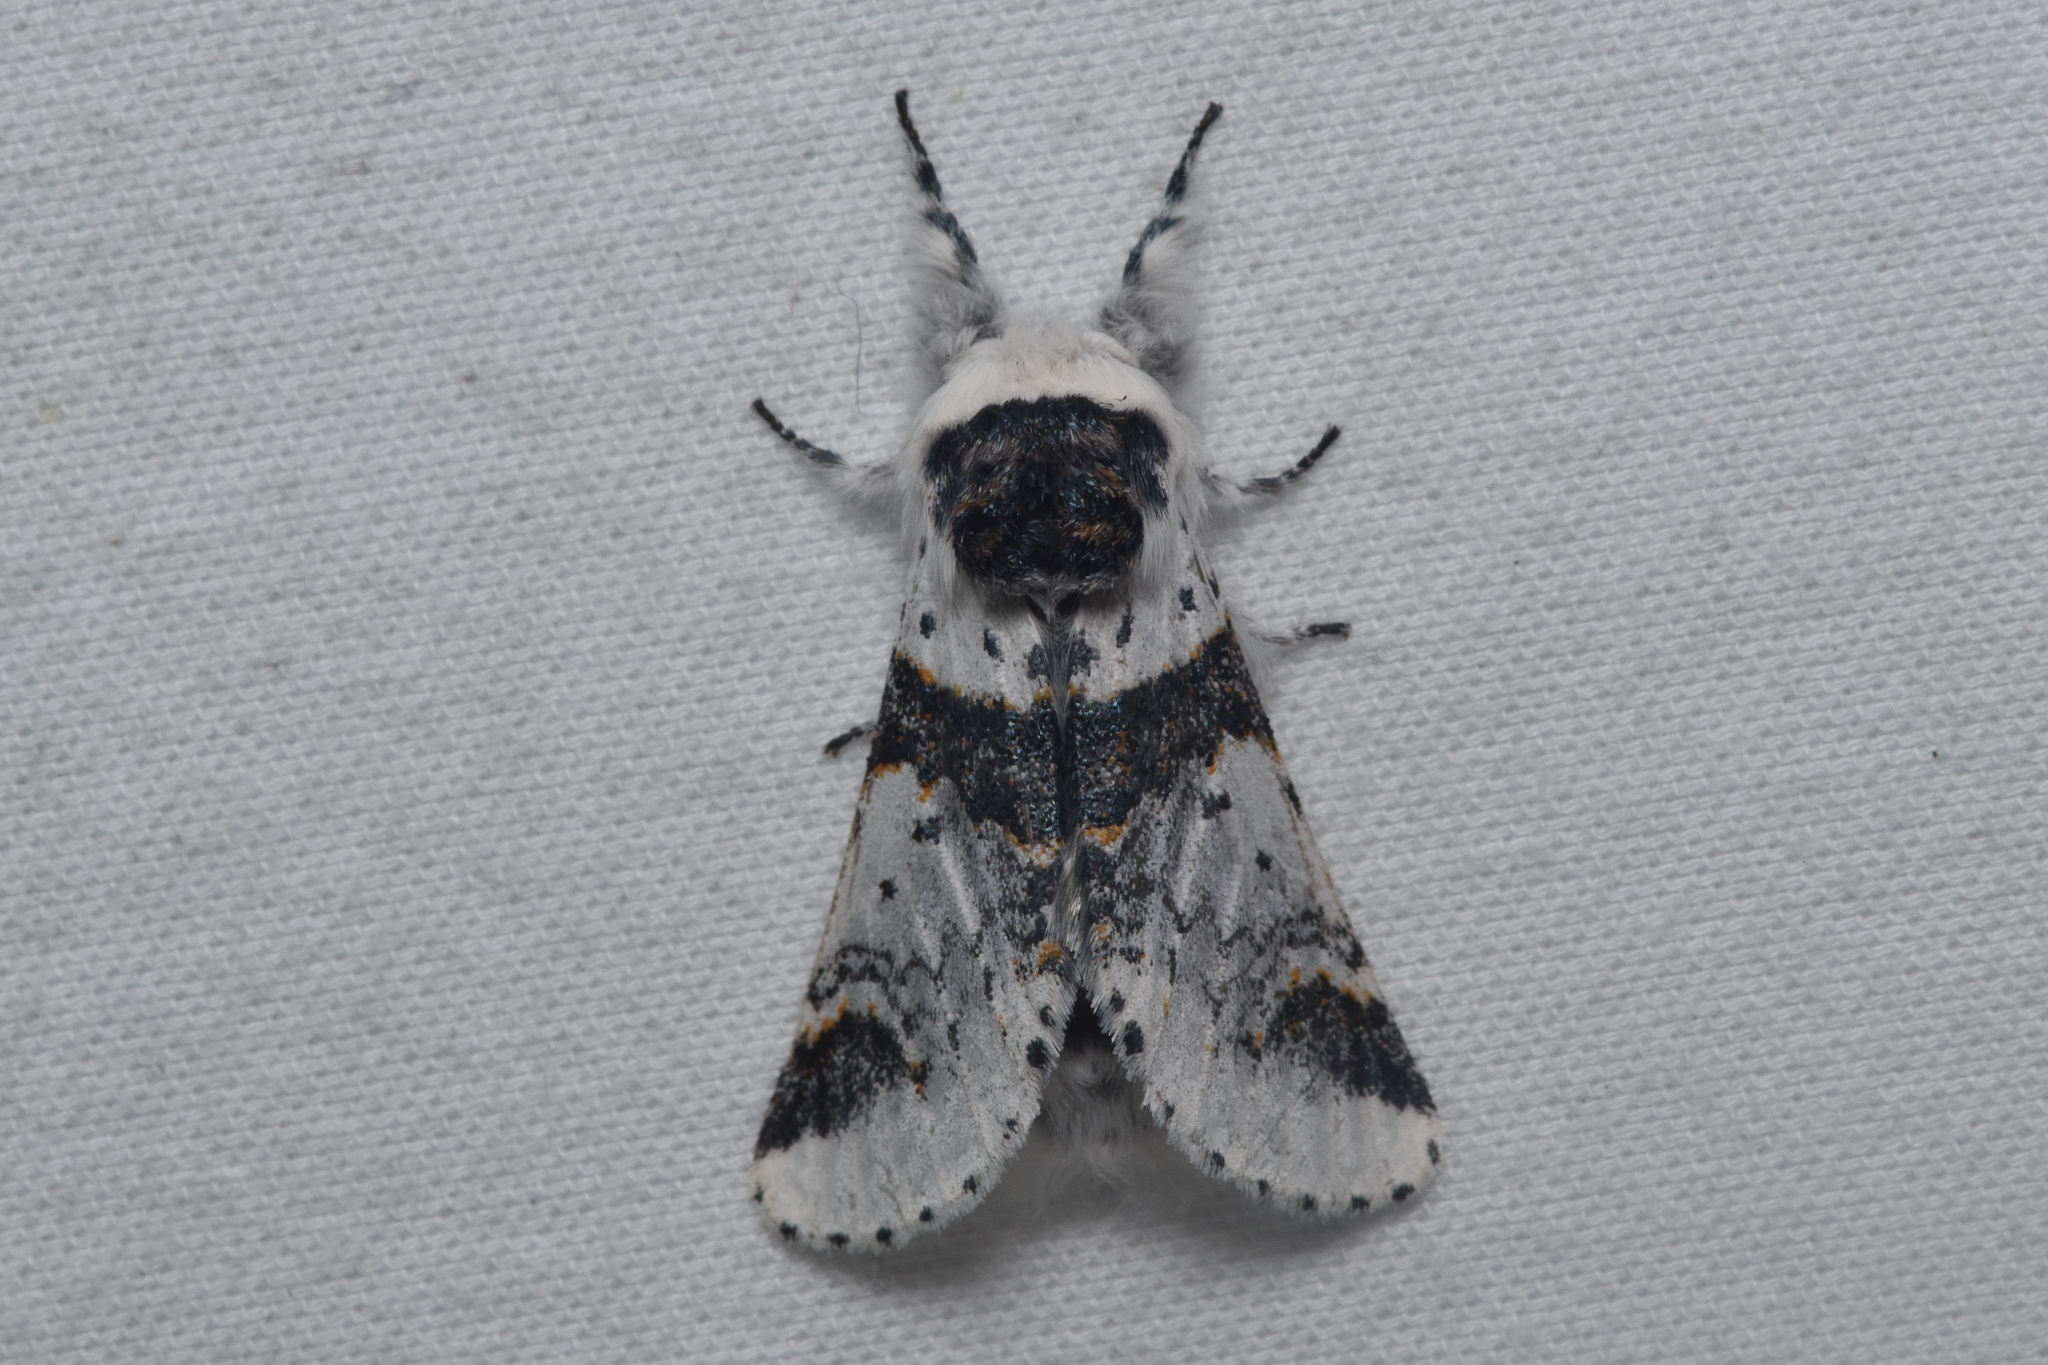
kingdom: Animalia
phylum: Arthropoda
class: Insecta
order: Lepidoptera
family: Notodontidae
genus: Furcula
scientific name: Furcula scolopendrina
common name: Zigzag furcula moth
